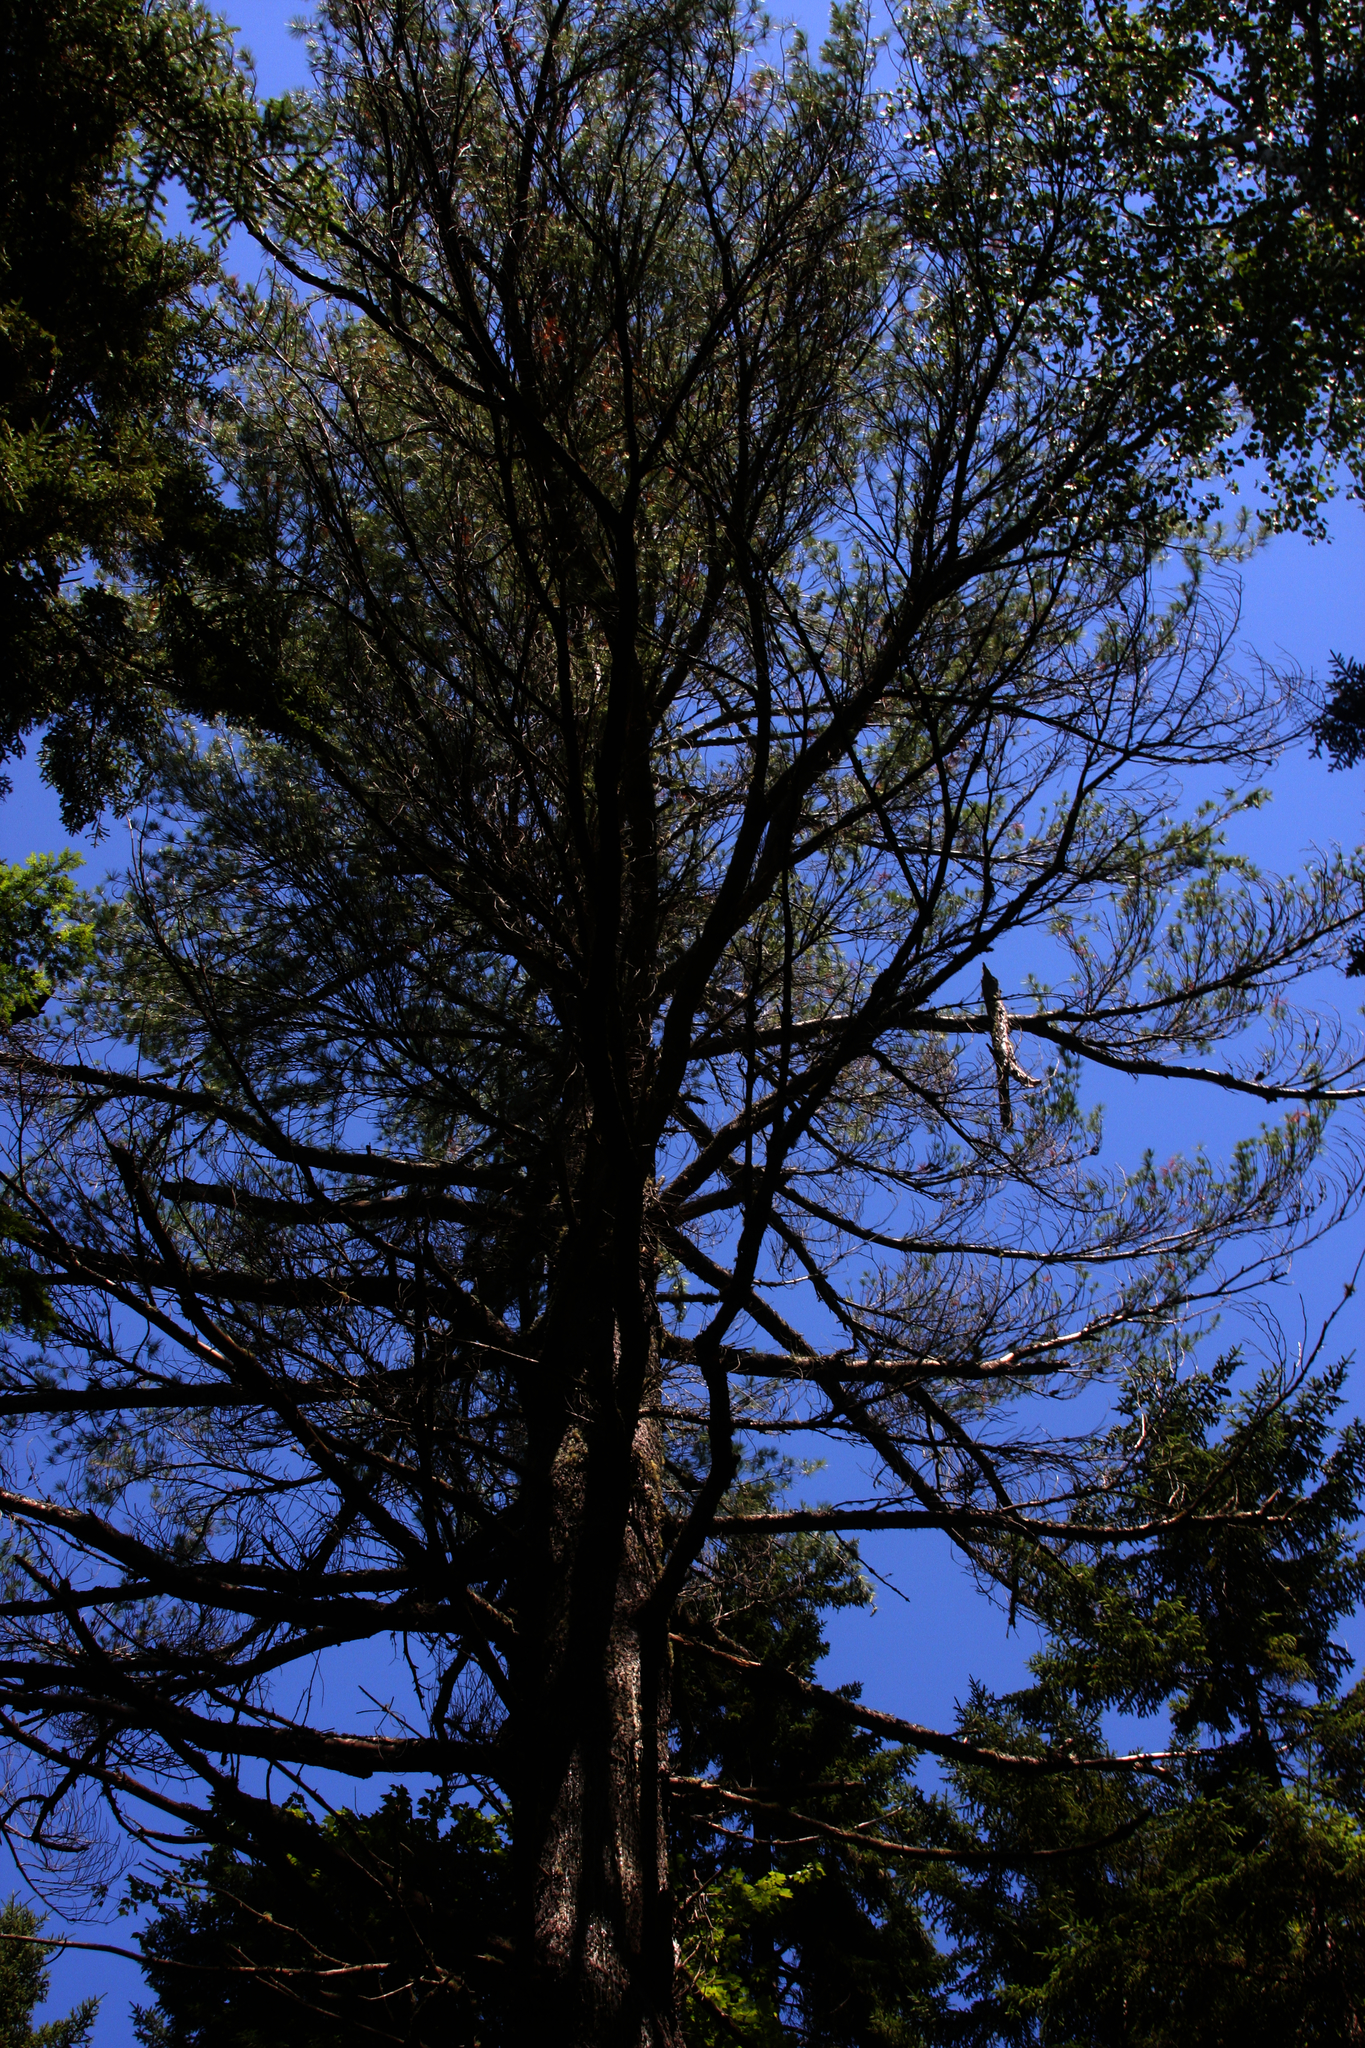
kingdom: Plantae
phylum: Tracheophyta
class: Pinopsida
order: Pinales
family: Pinaceae
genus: Pinus
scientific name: Pinus strobus
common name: Weymouth pine
